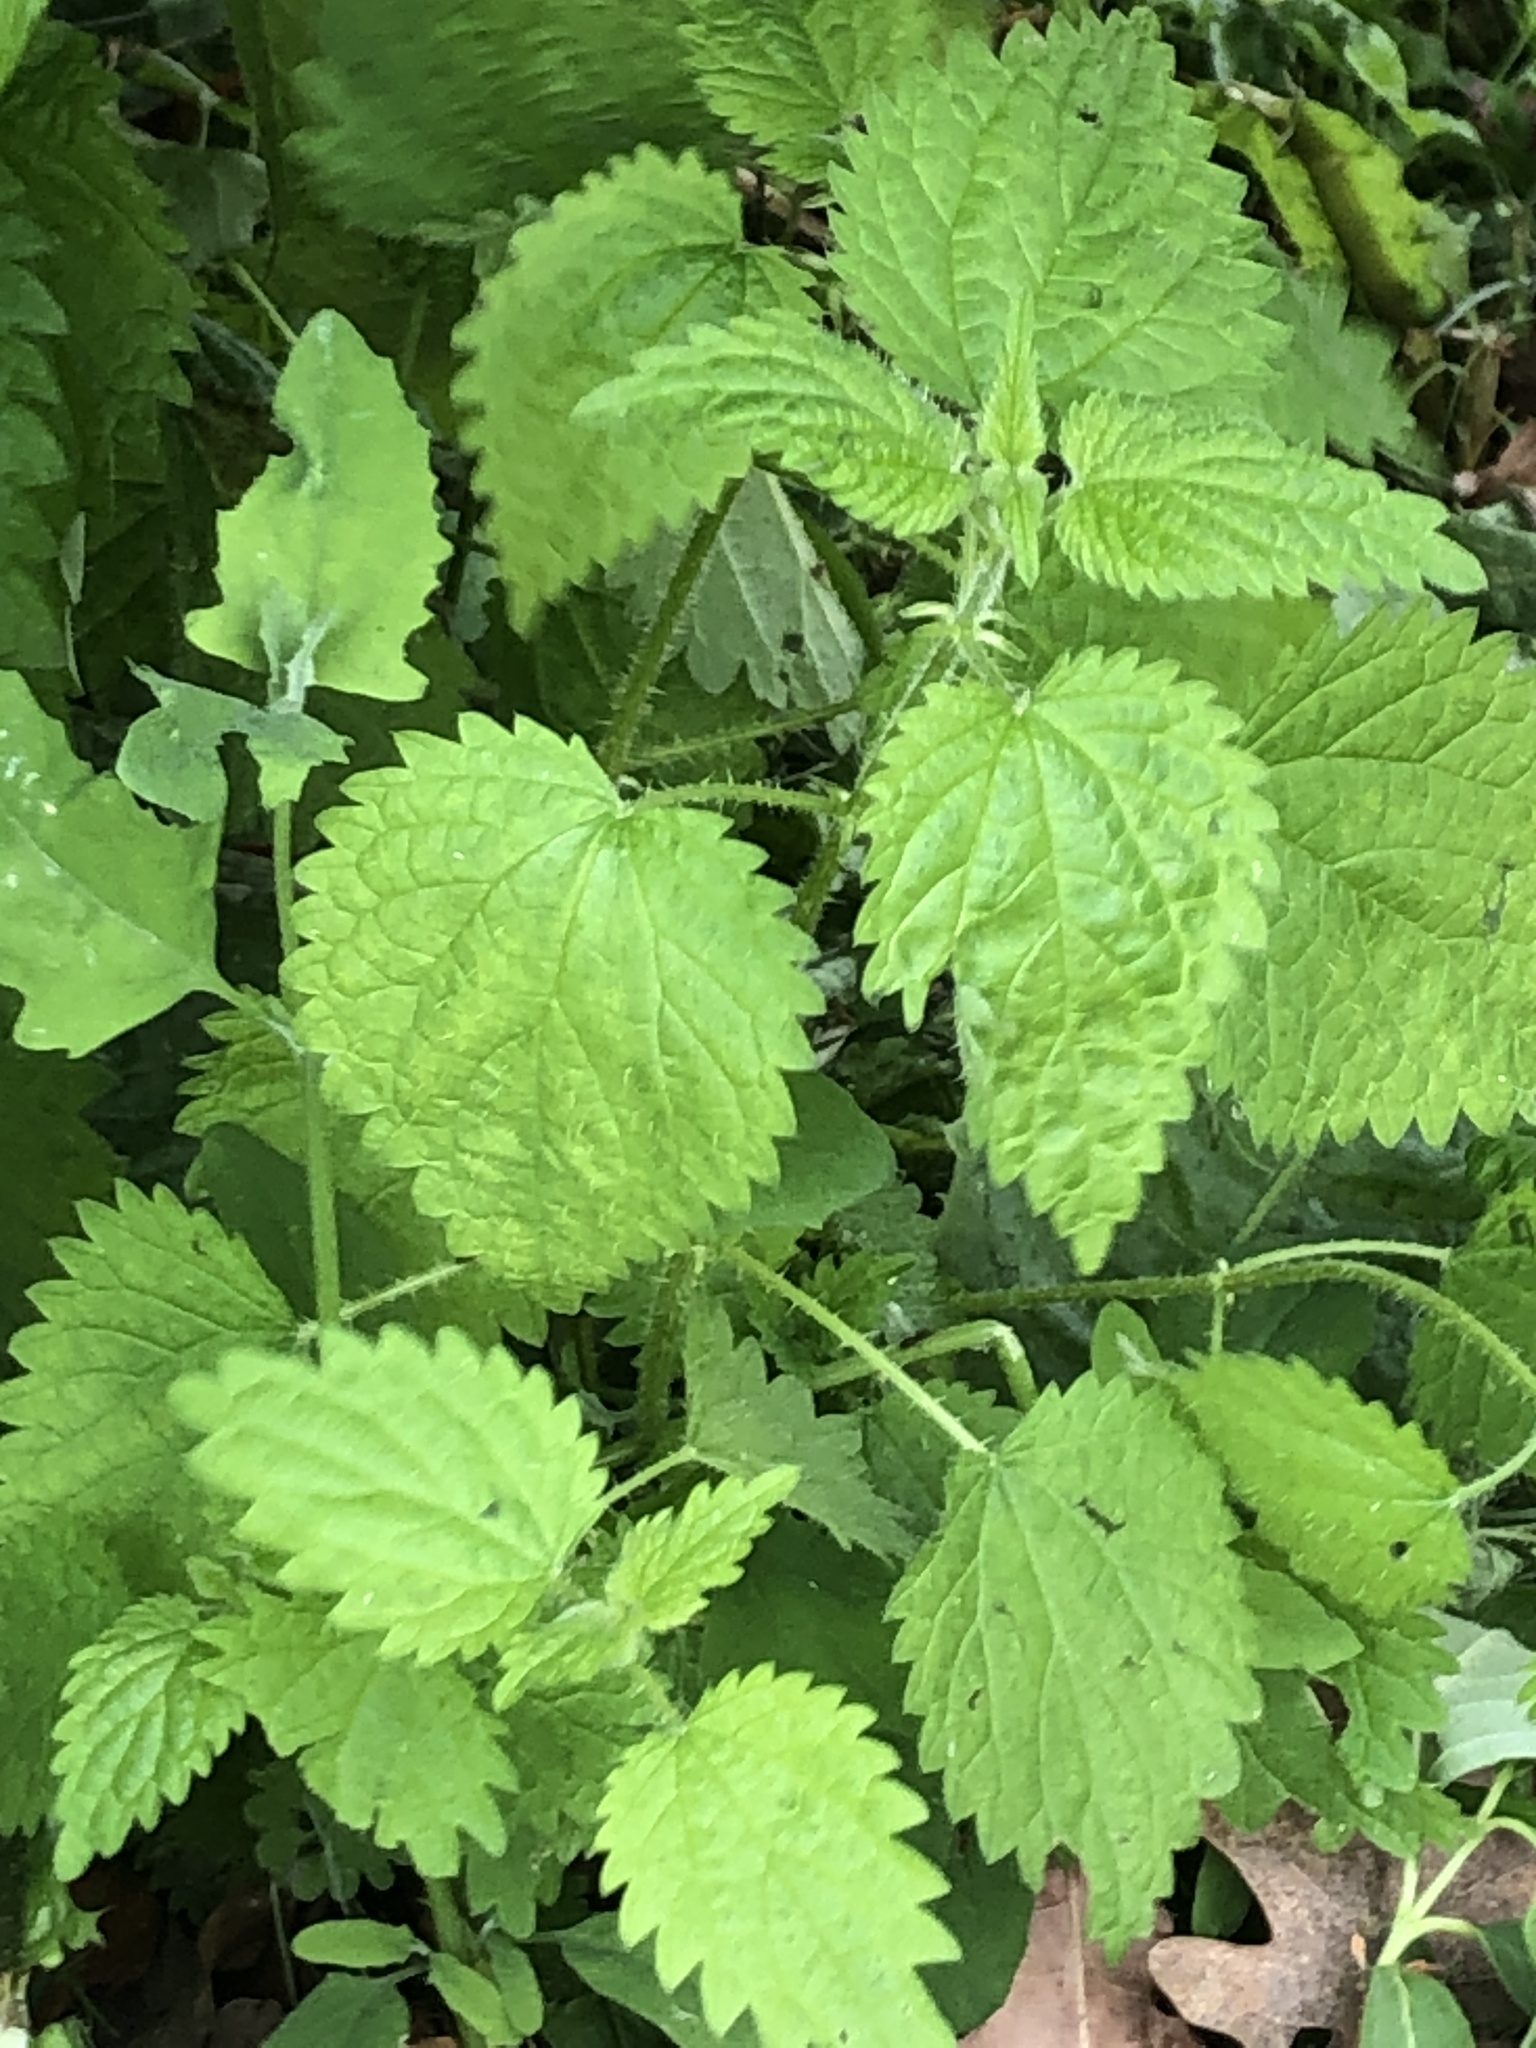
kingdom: Plantae
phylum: Tracheophyta
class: Magnoliopsida
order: Rosales
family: Urticaceae
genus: Urtica
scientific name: Urtica dioica
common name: Common nettle
